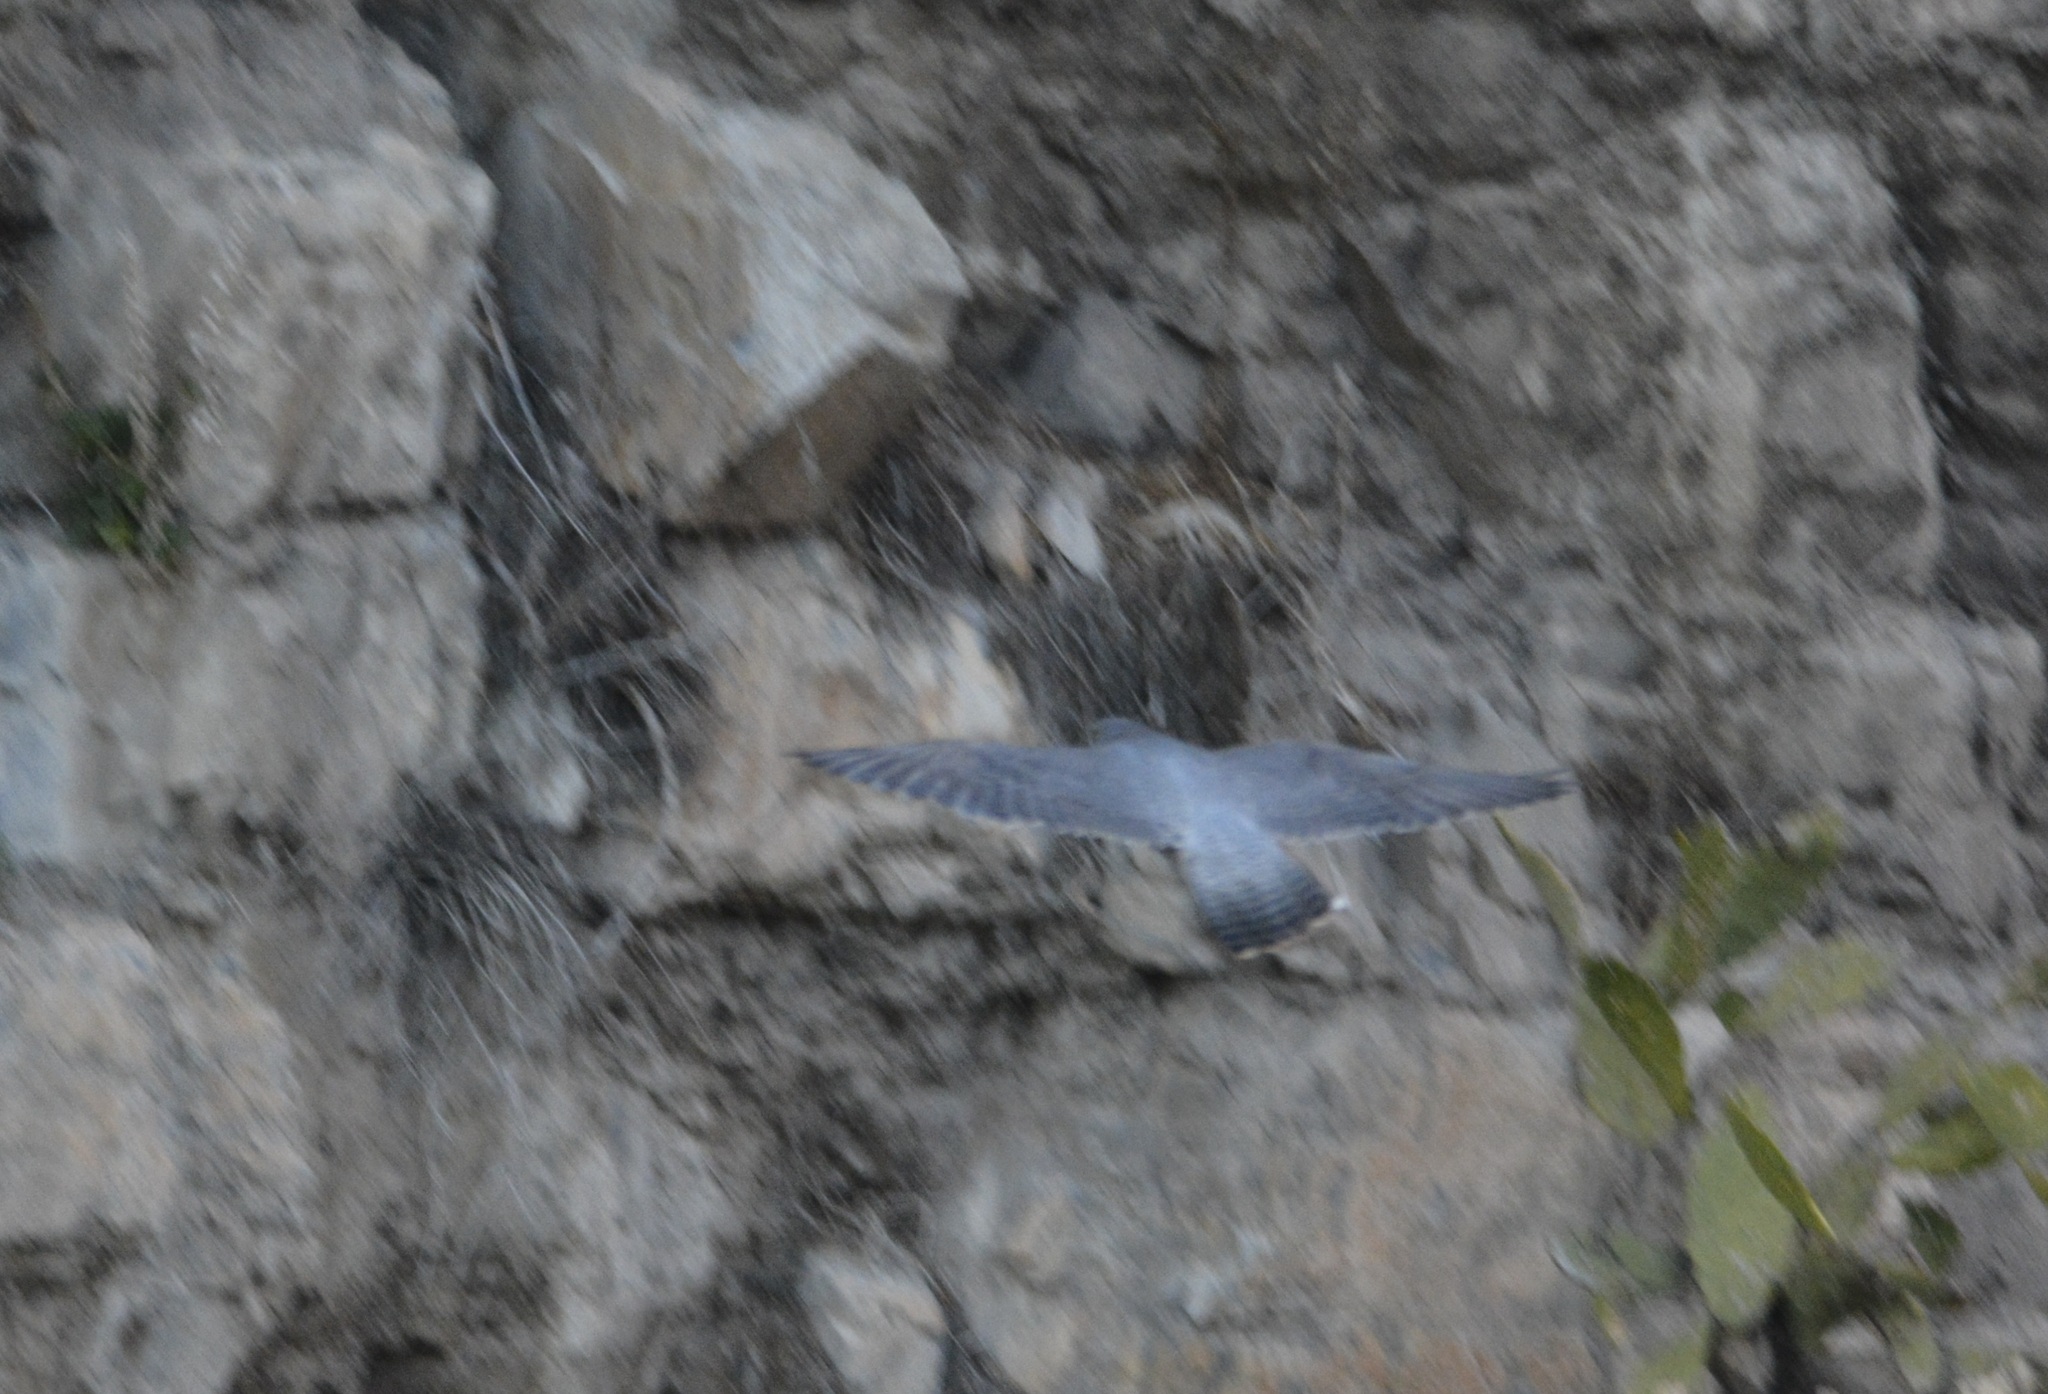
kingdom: Animalia
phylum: Chordata
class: Aves
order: Falconiformes
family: Falconidae
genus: Falco
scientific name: Falco peregrinus
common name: Peregrine falcon
